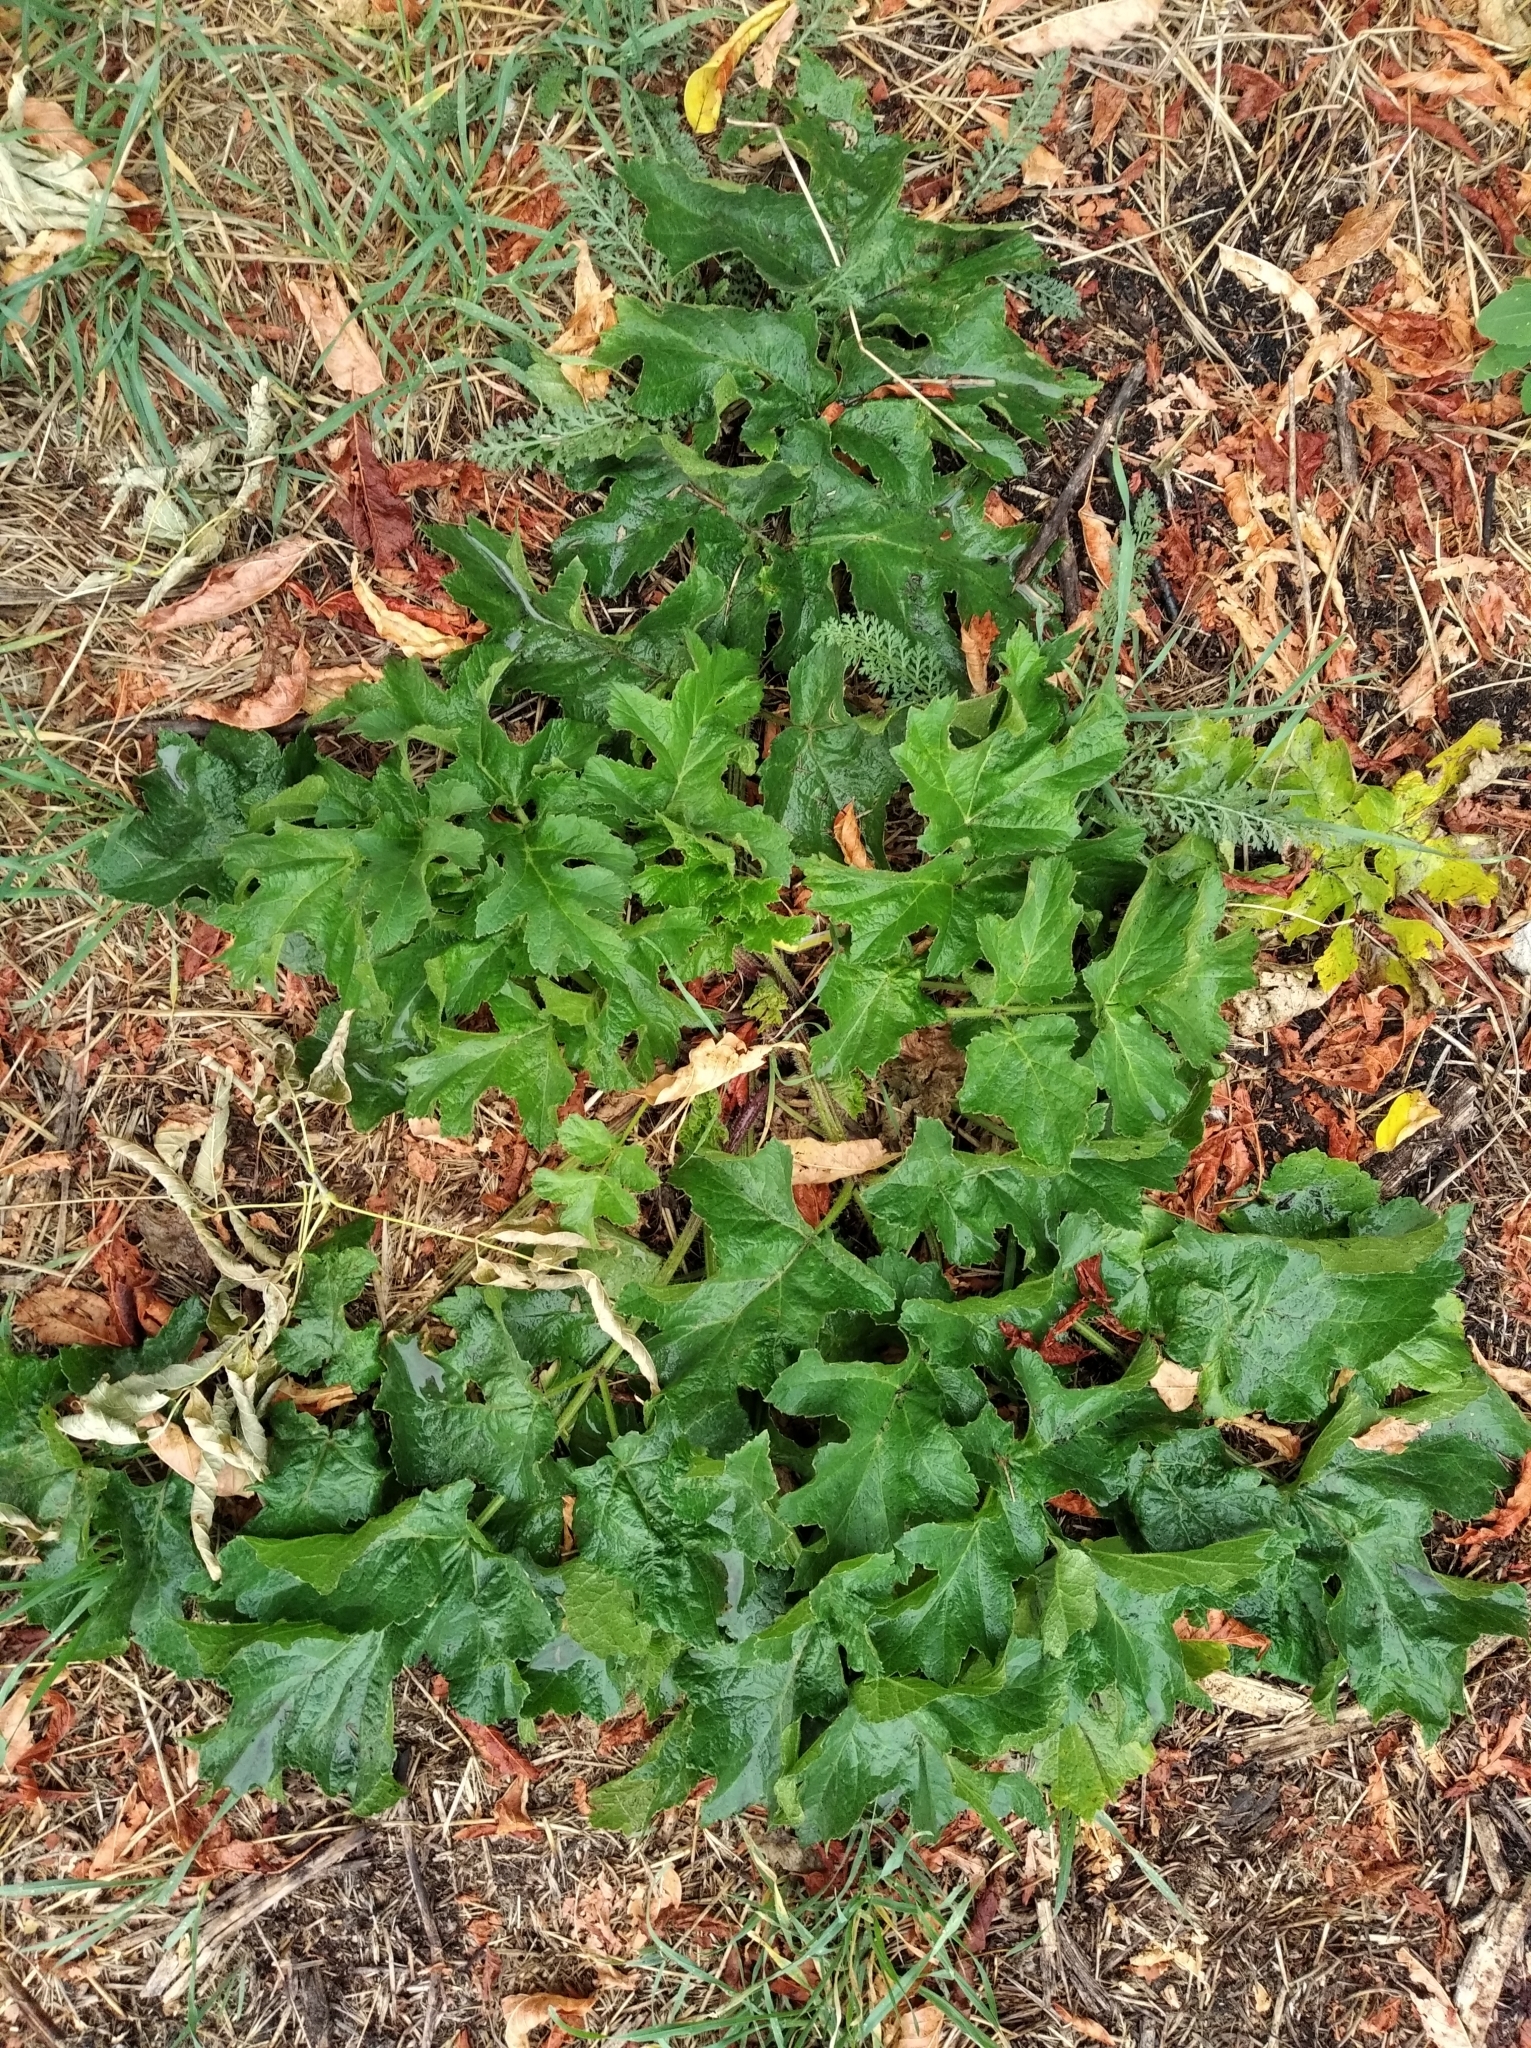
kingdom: Plantae
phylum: Tracheophyta
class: Magnoliopsida
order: Apiales
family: Apiaceae
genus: Heracleum
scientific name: Heracleum sphondylium
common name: Hogweed
